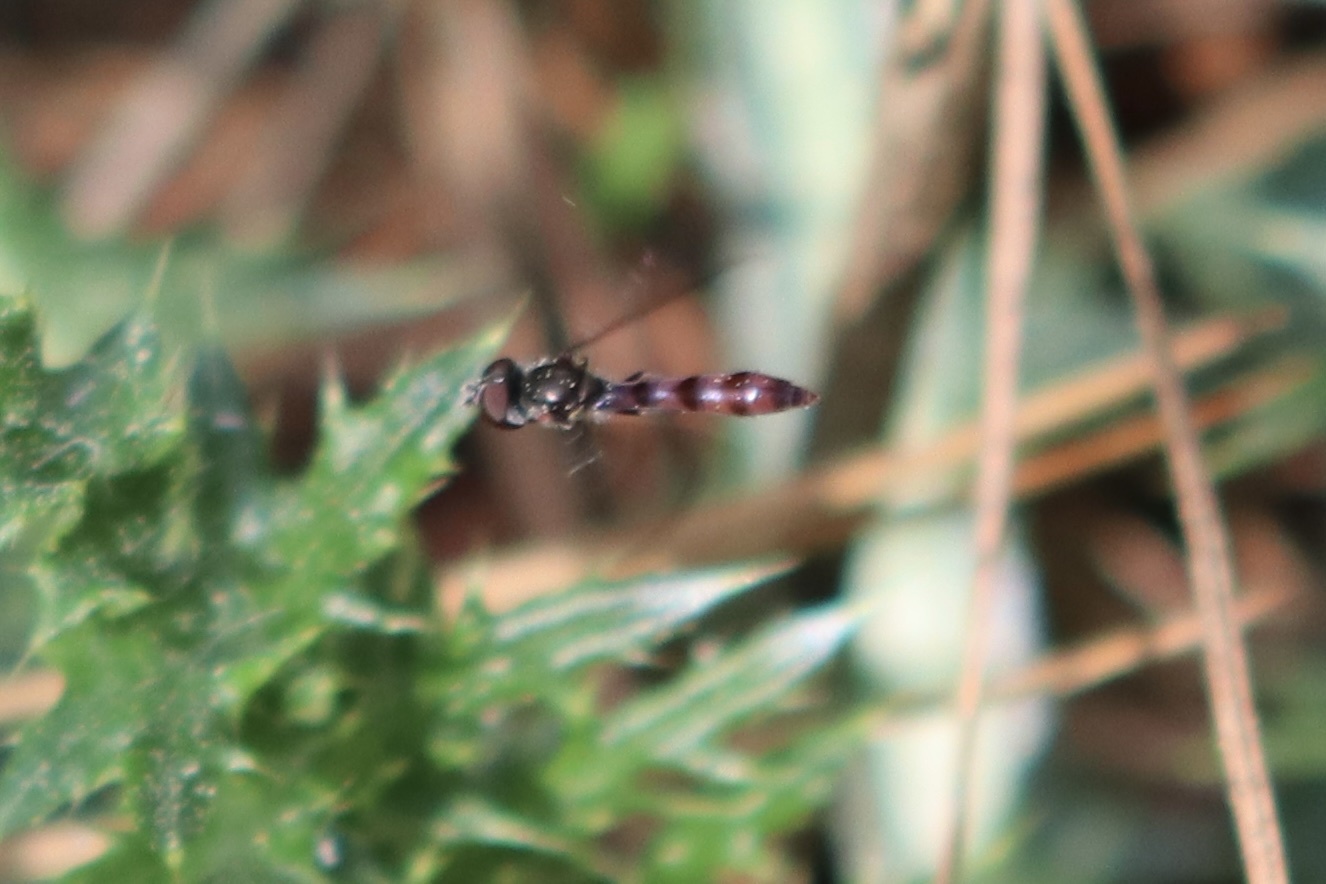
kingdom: Animalia
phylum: Arthropoda
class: Insecta
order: Diptera
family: Syrphidae
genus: Ocyptamus
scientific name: Ocyptamus fuscipennis
